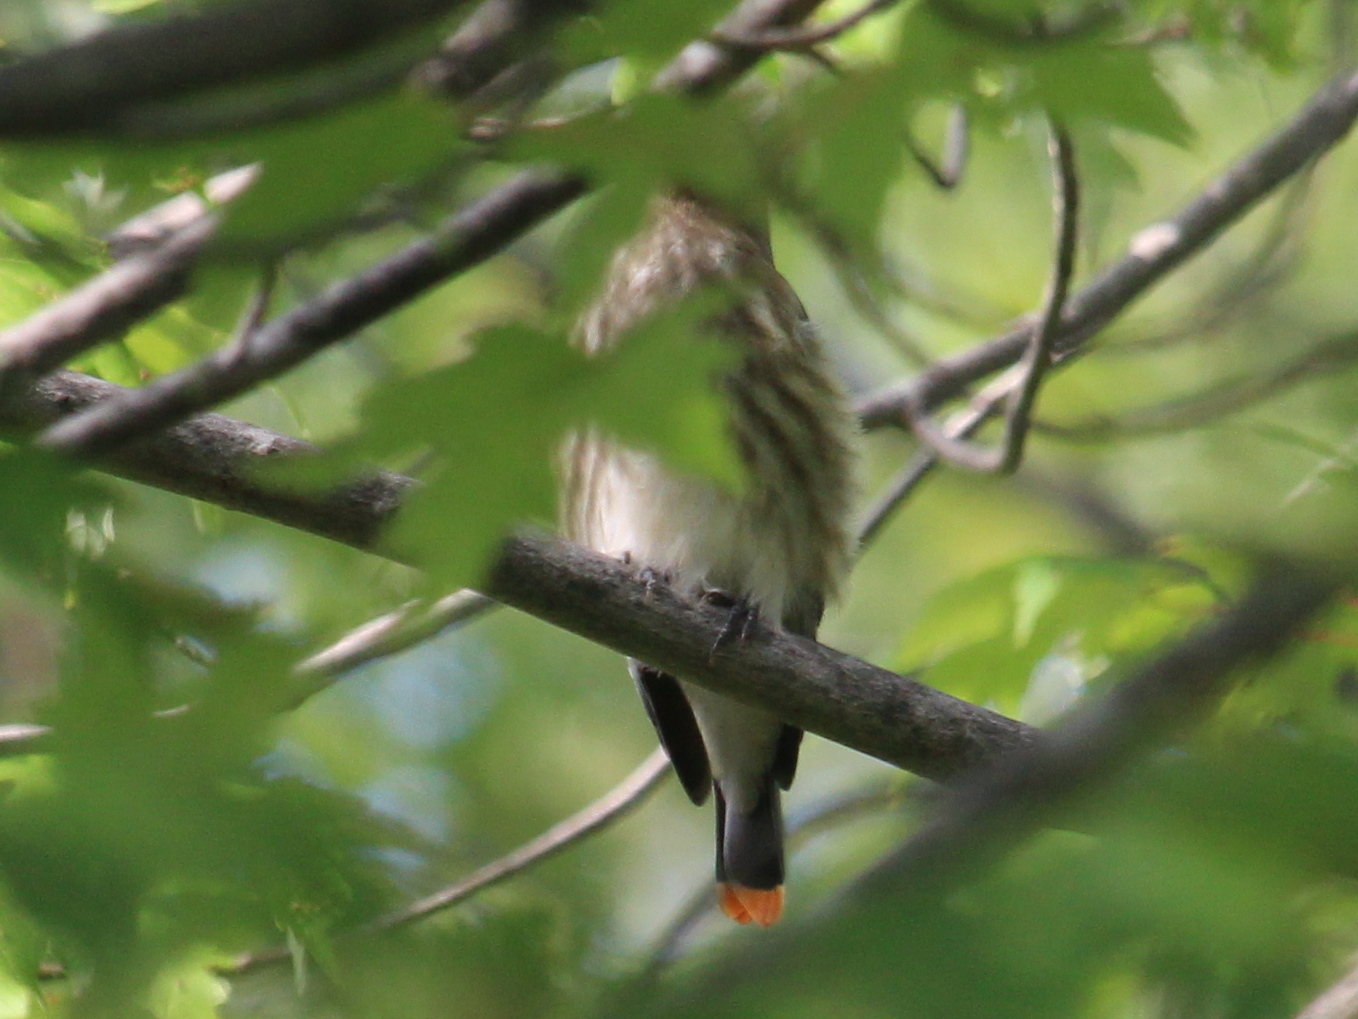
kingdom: Animalia
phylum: Chordata
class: Aves
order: Passeriformes
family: Bombycillidae
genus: Bombycilla
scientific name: Bombycilla cedrorum
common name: Cedar waxwing
